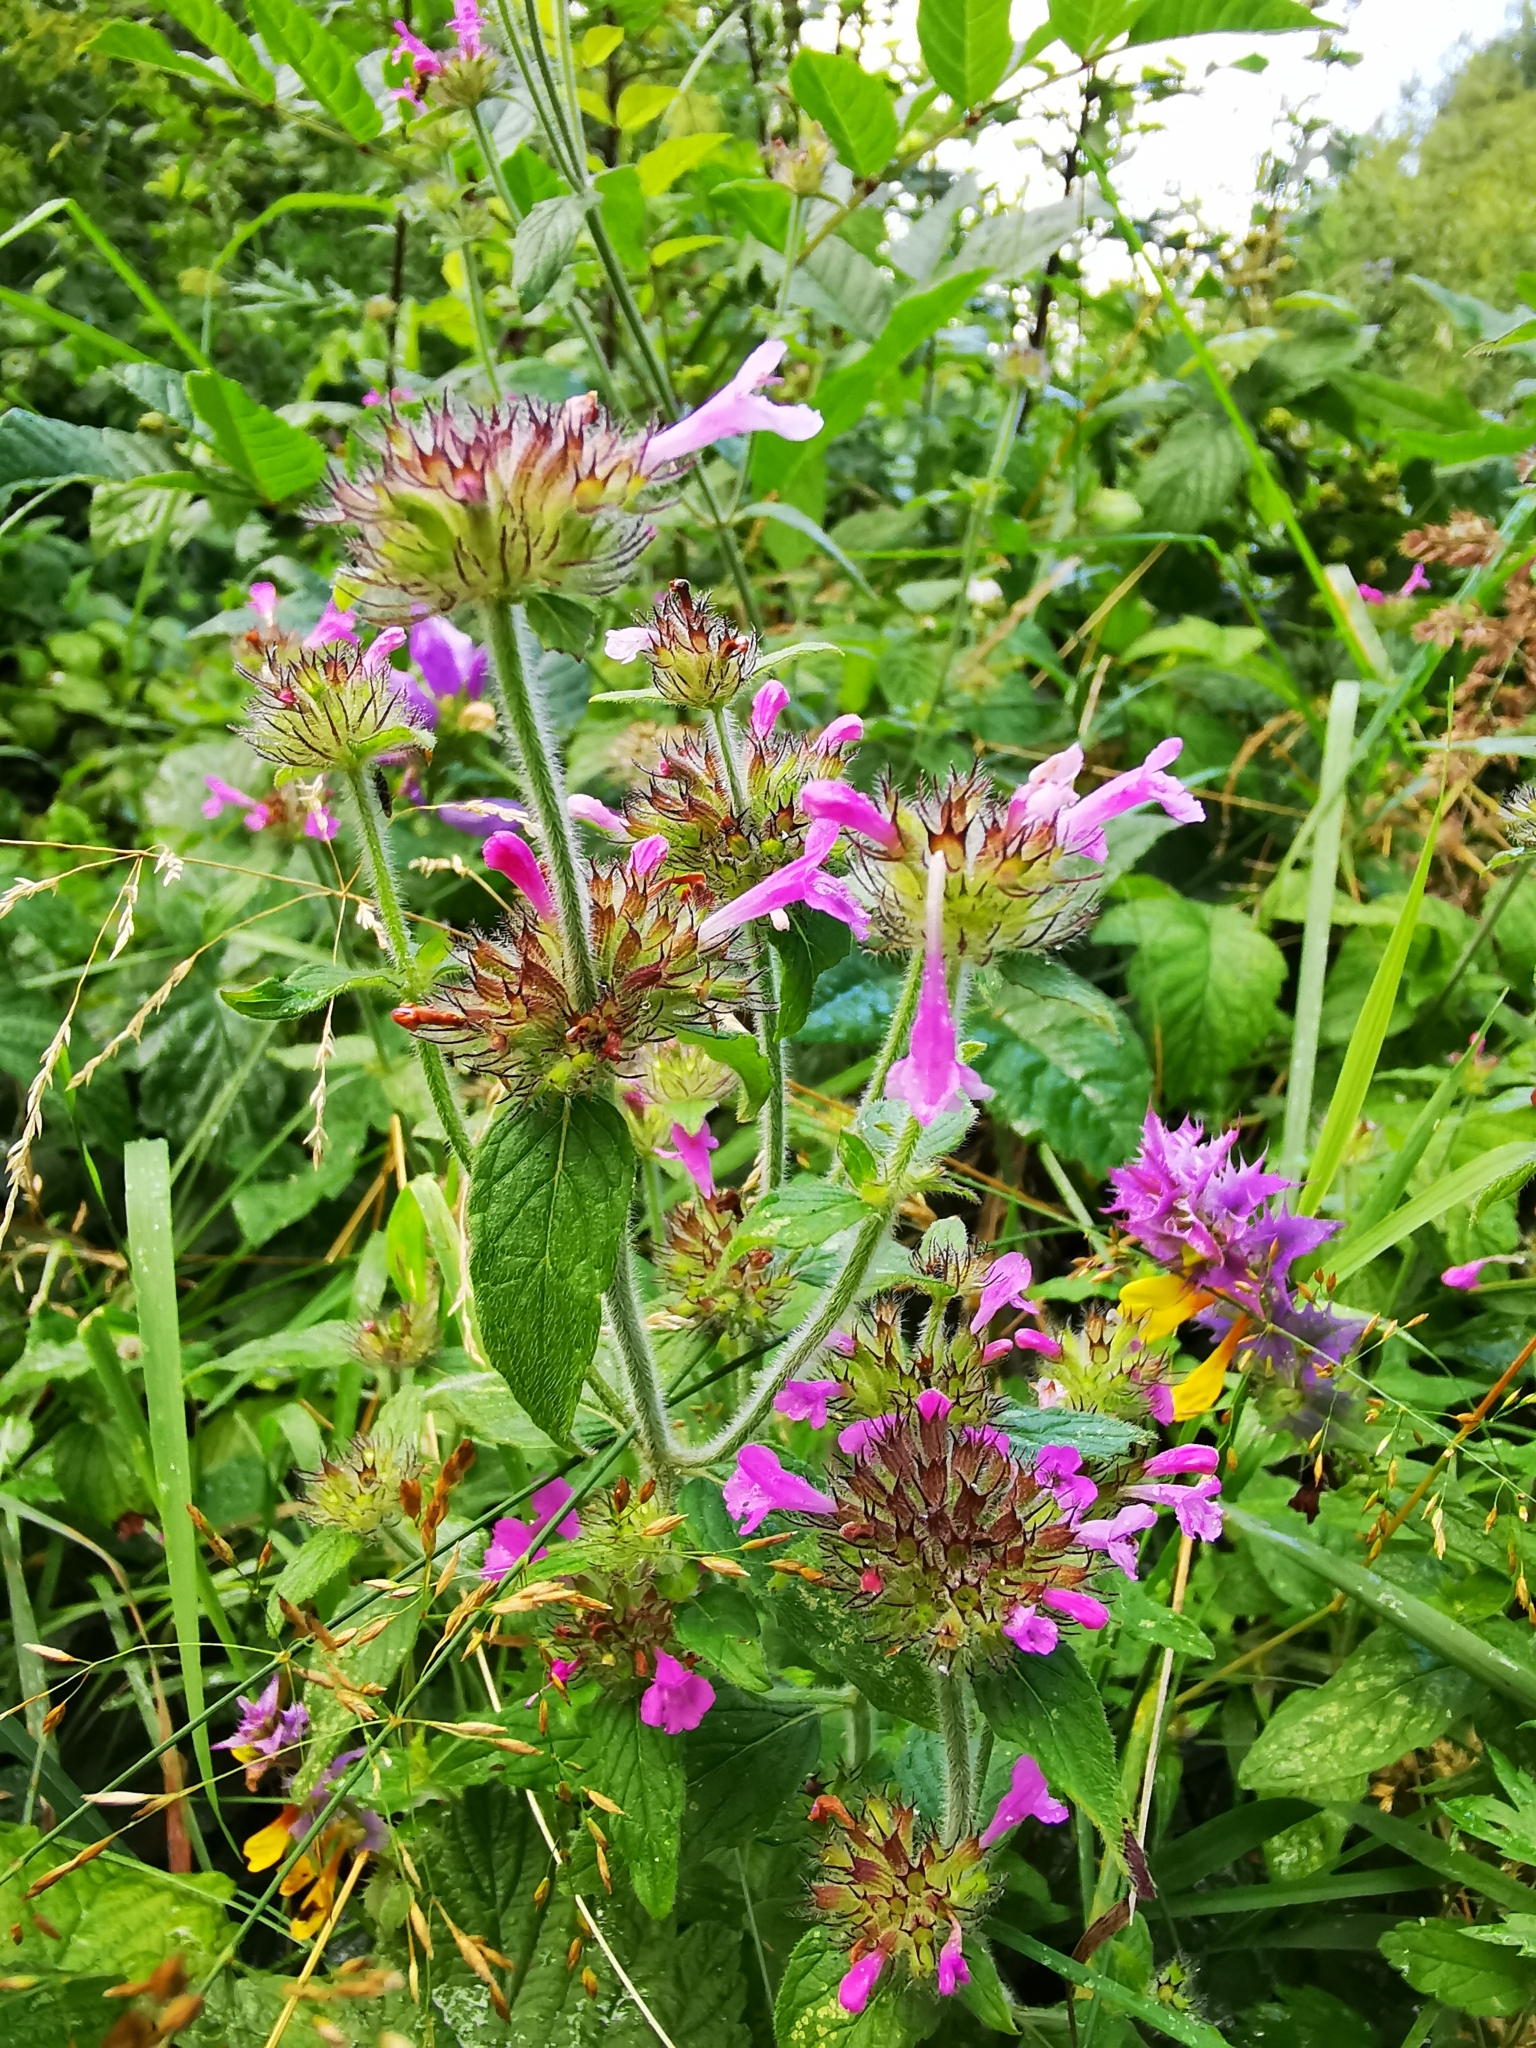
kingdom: Plantae
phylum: Tracheophyta
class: Magnoliopsida
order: Lamiales
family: Lamiaceae
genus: Clinopodium
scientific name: Clinopodium vulgare
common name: Wild basil
